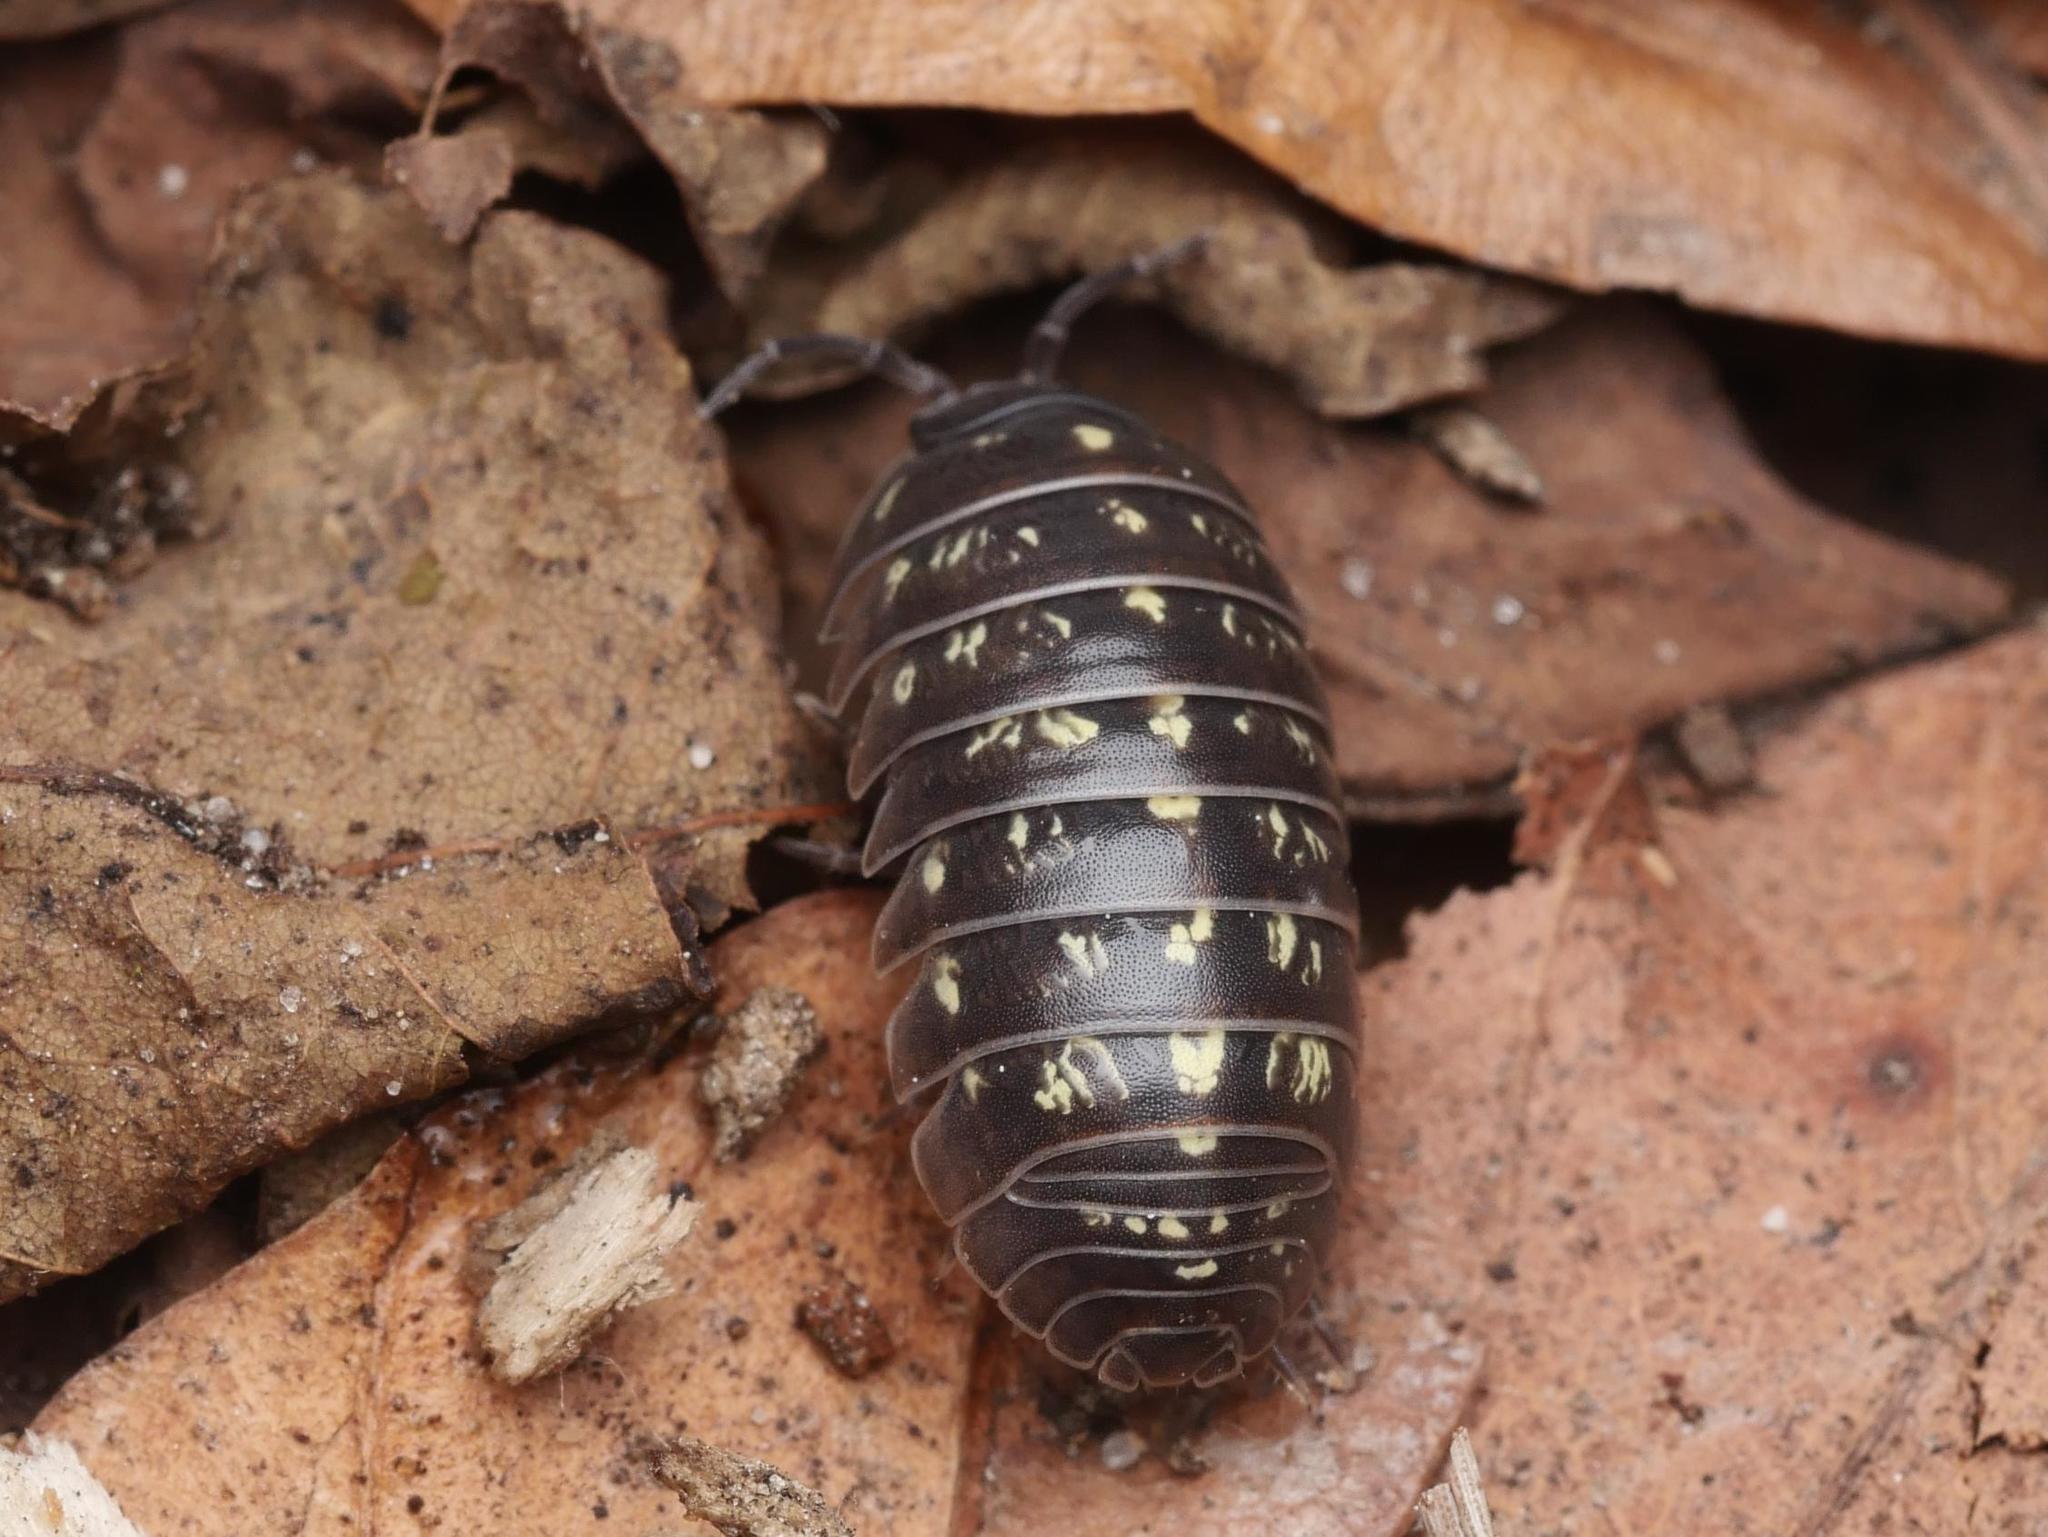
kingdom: Animalia
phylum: Arthropoda
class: Malacostraca
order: Isopoda
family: Armadillidiidae
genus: Armadillidium
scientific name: Armadillidium vulgare
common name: Common pill woodlouse
